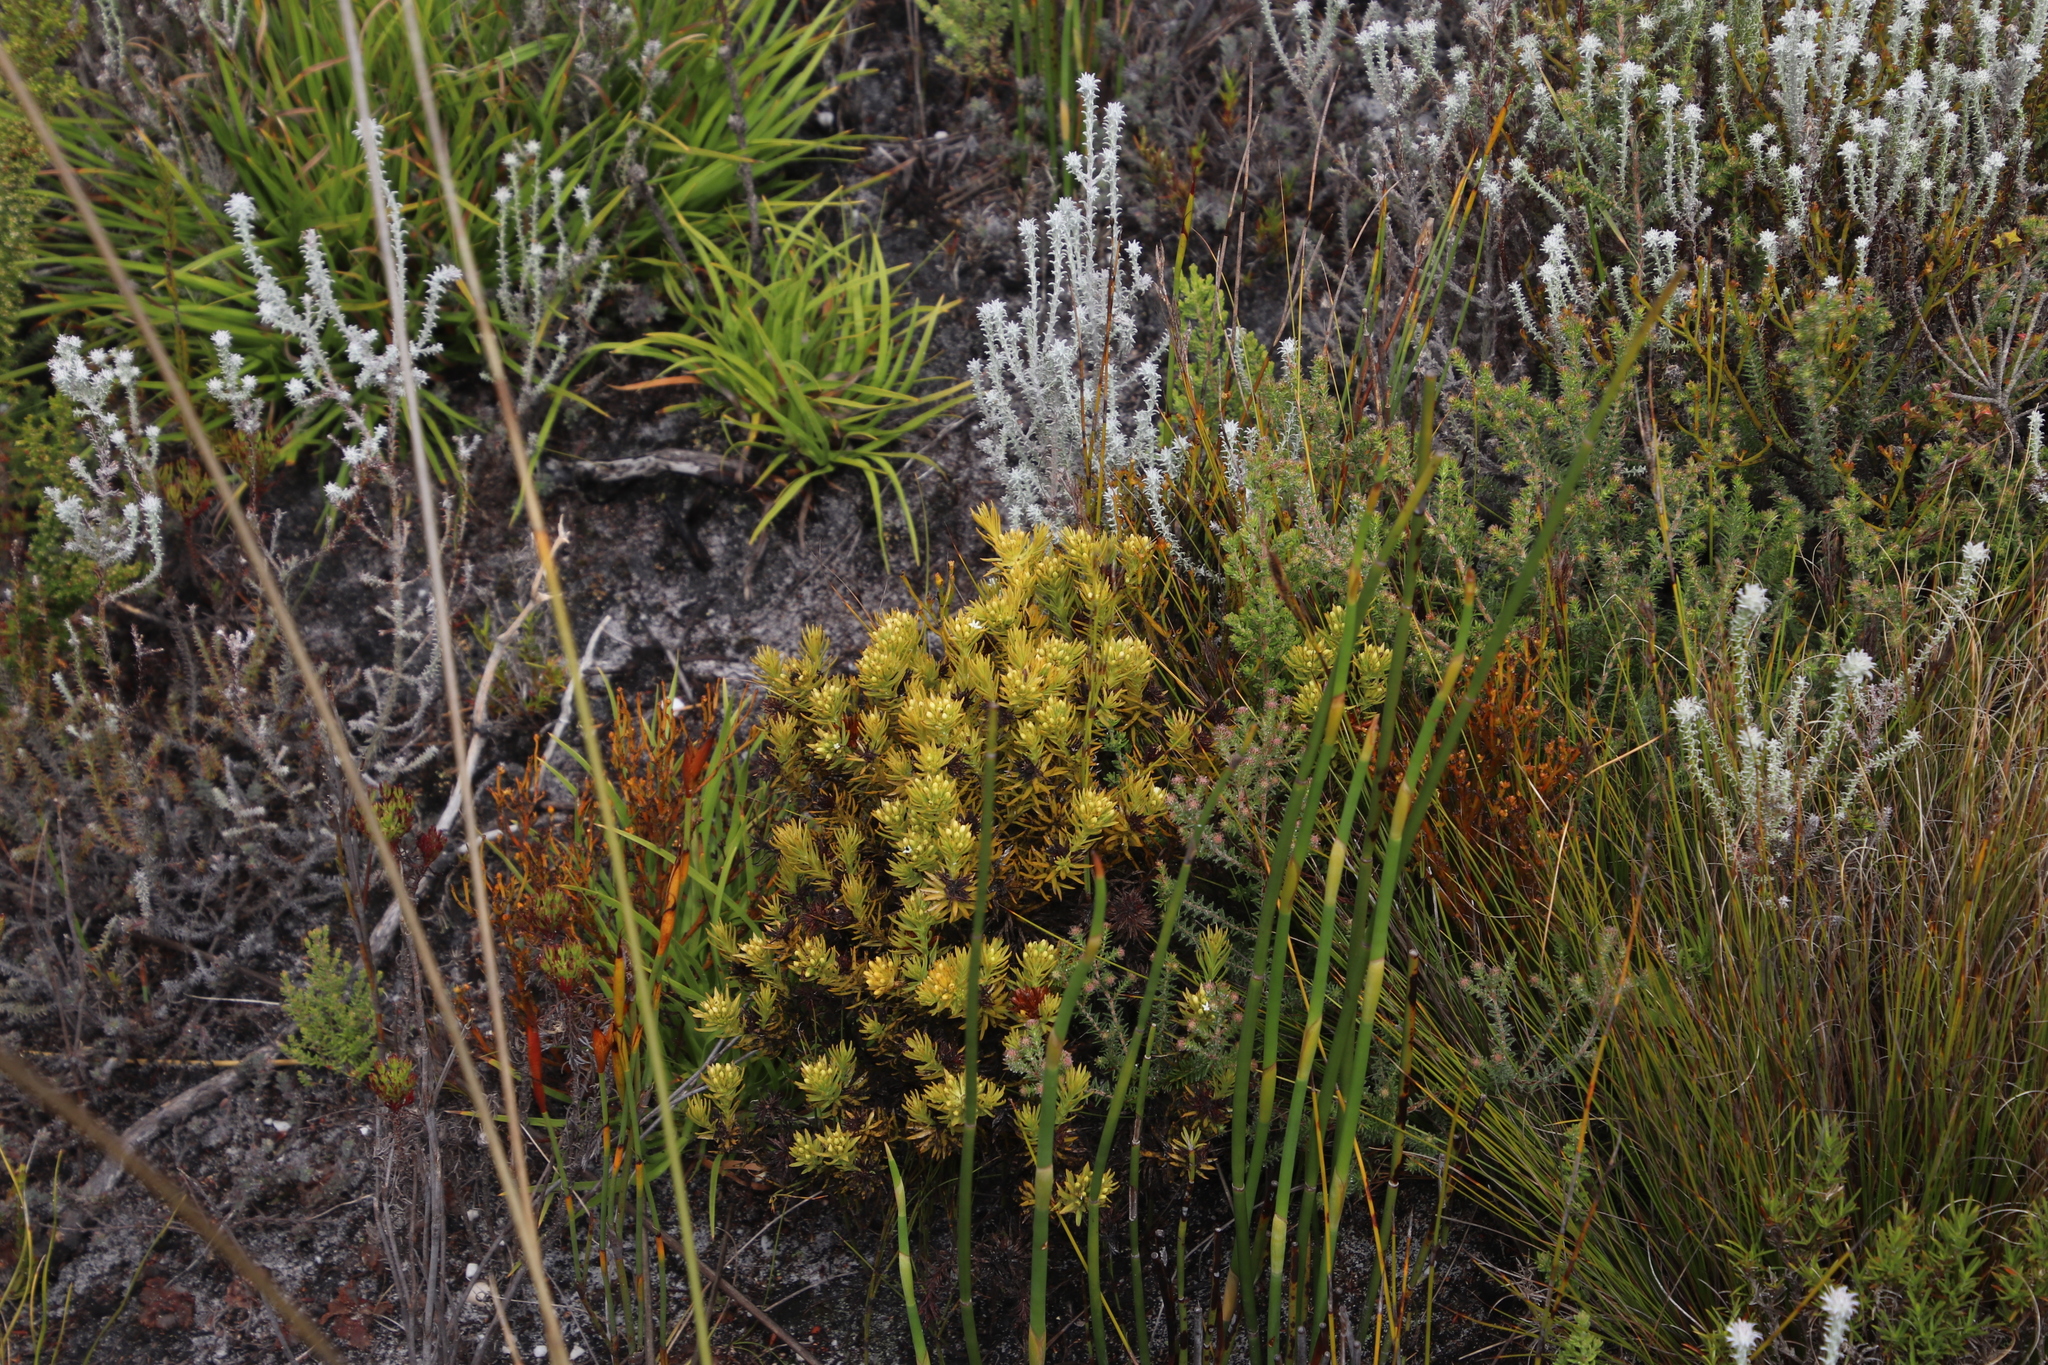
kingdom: Plantae
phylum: Tracheophyta
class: Magnoliopsida
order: Santalales
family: Thesiaceae
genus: Thesium
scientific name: Thesium capitatum
